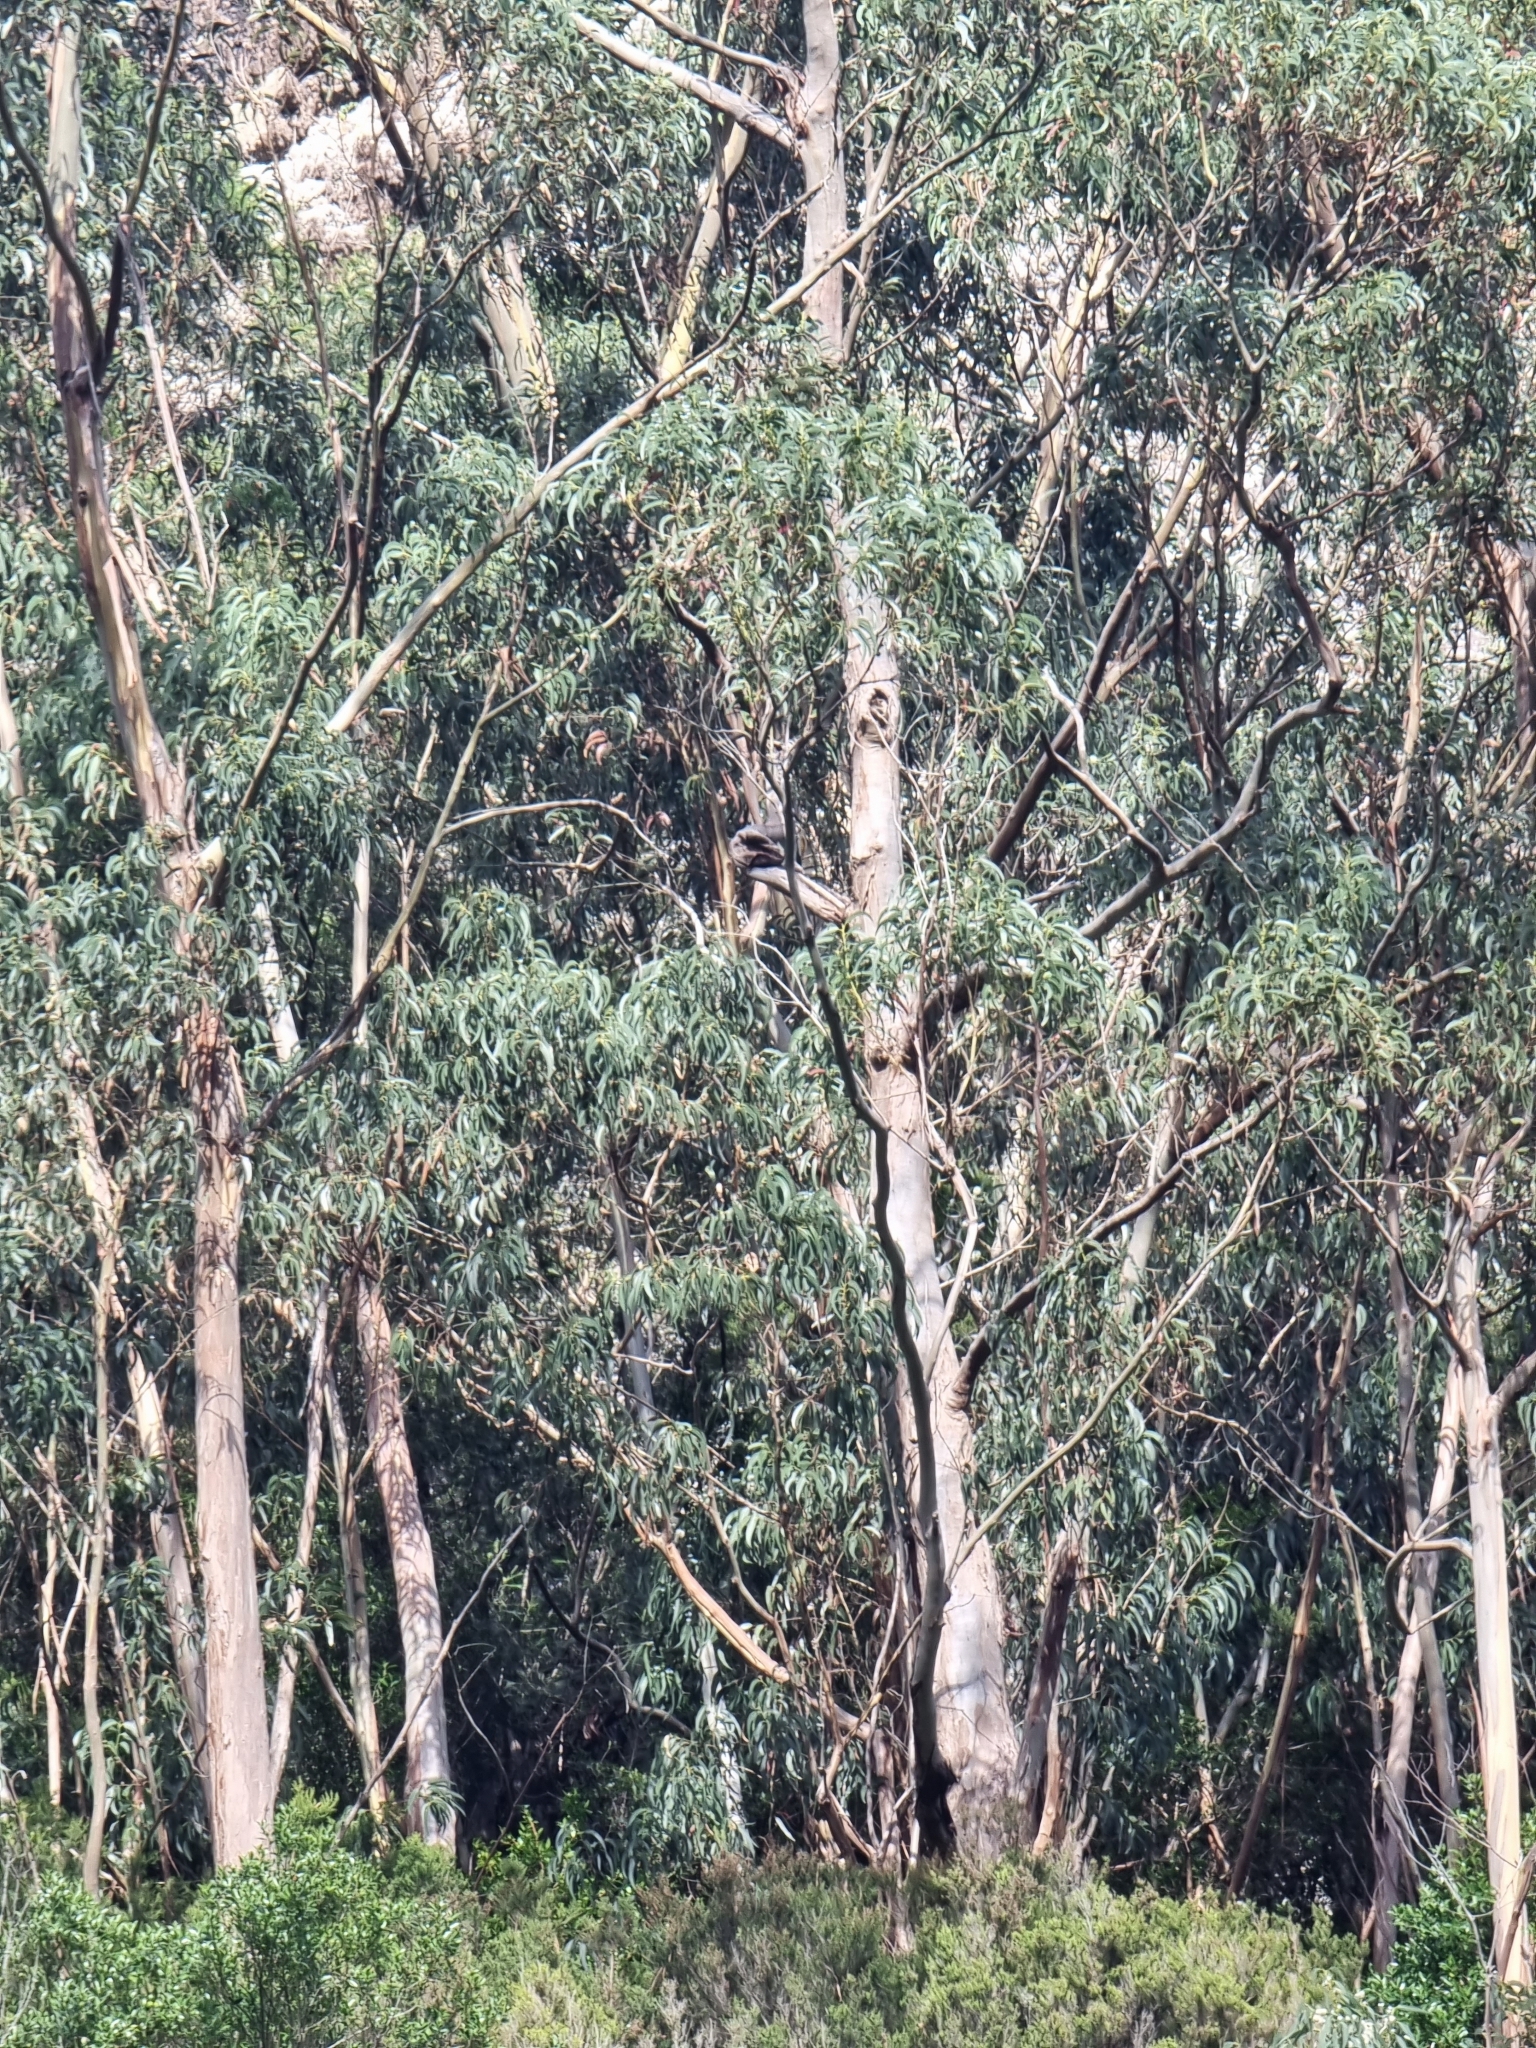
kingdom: Plantae
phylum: Tracheophyta
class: Magnoliopsida
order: Myrtales
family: Myrtaceae
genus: Eucalyptus
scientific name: Eucalyptus globulus
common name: Southern blue-gum
